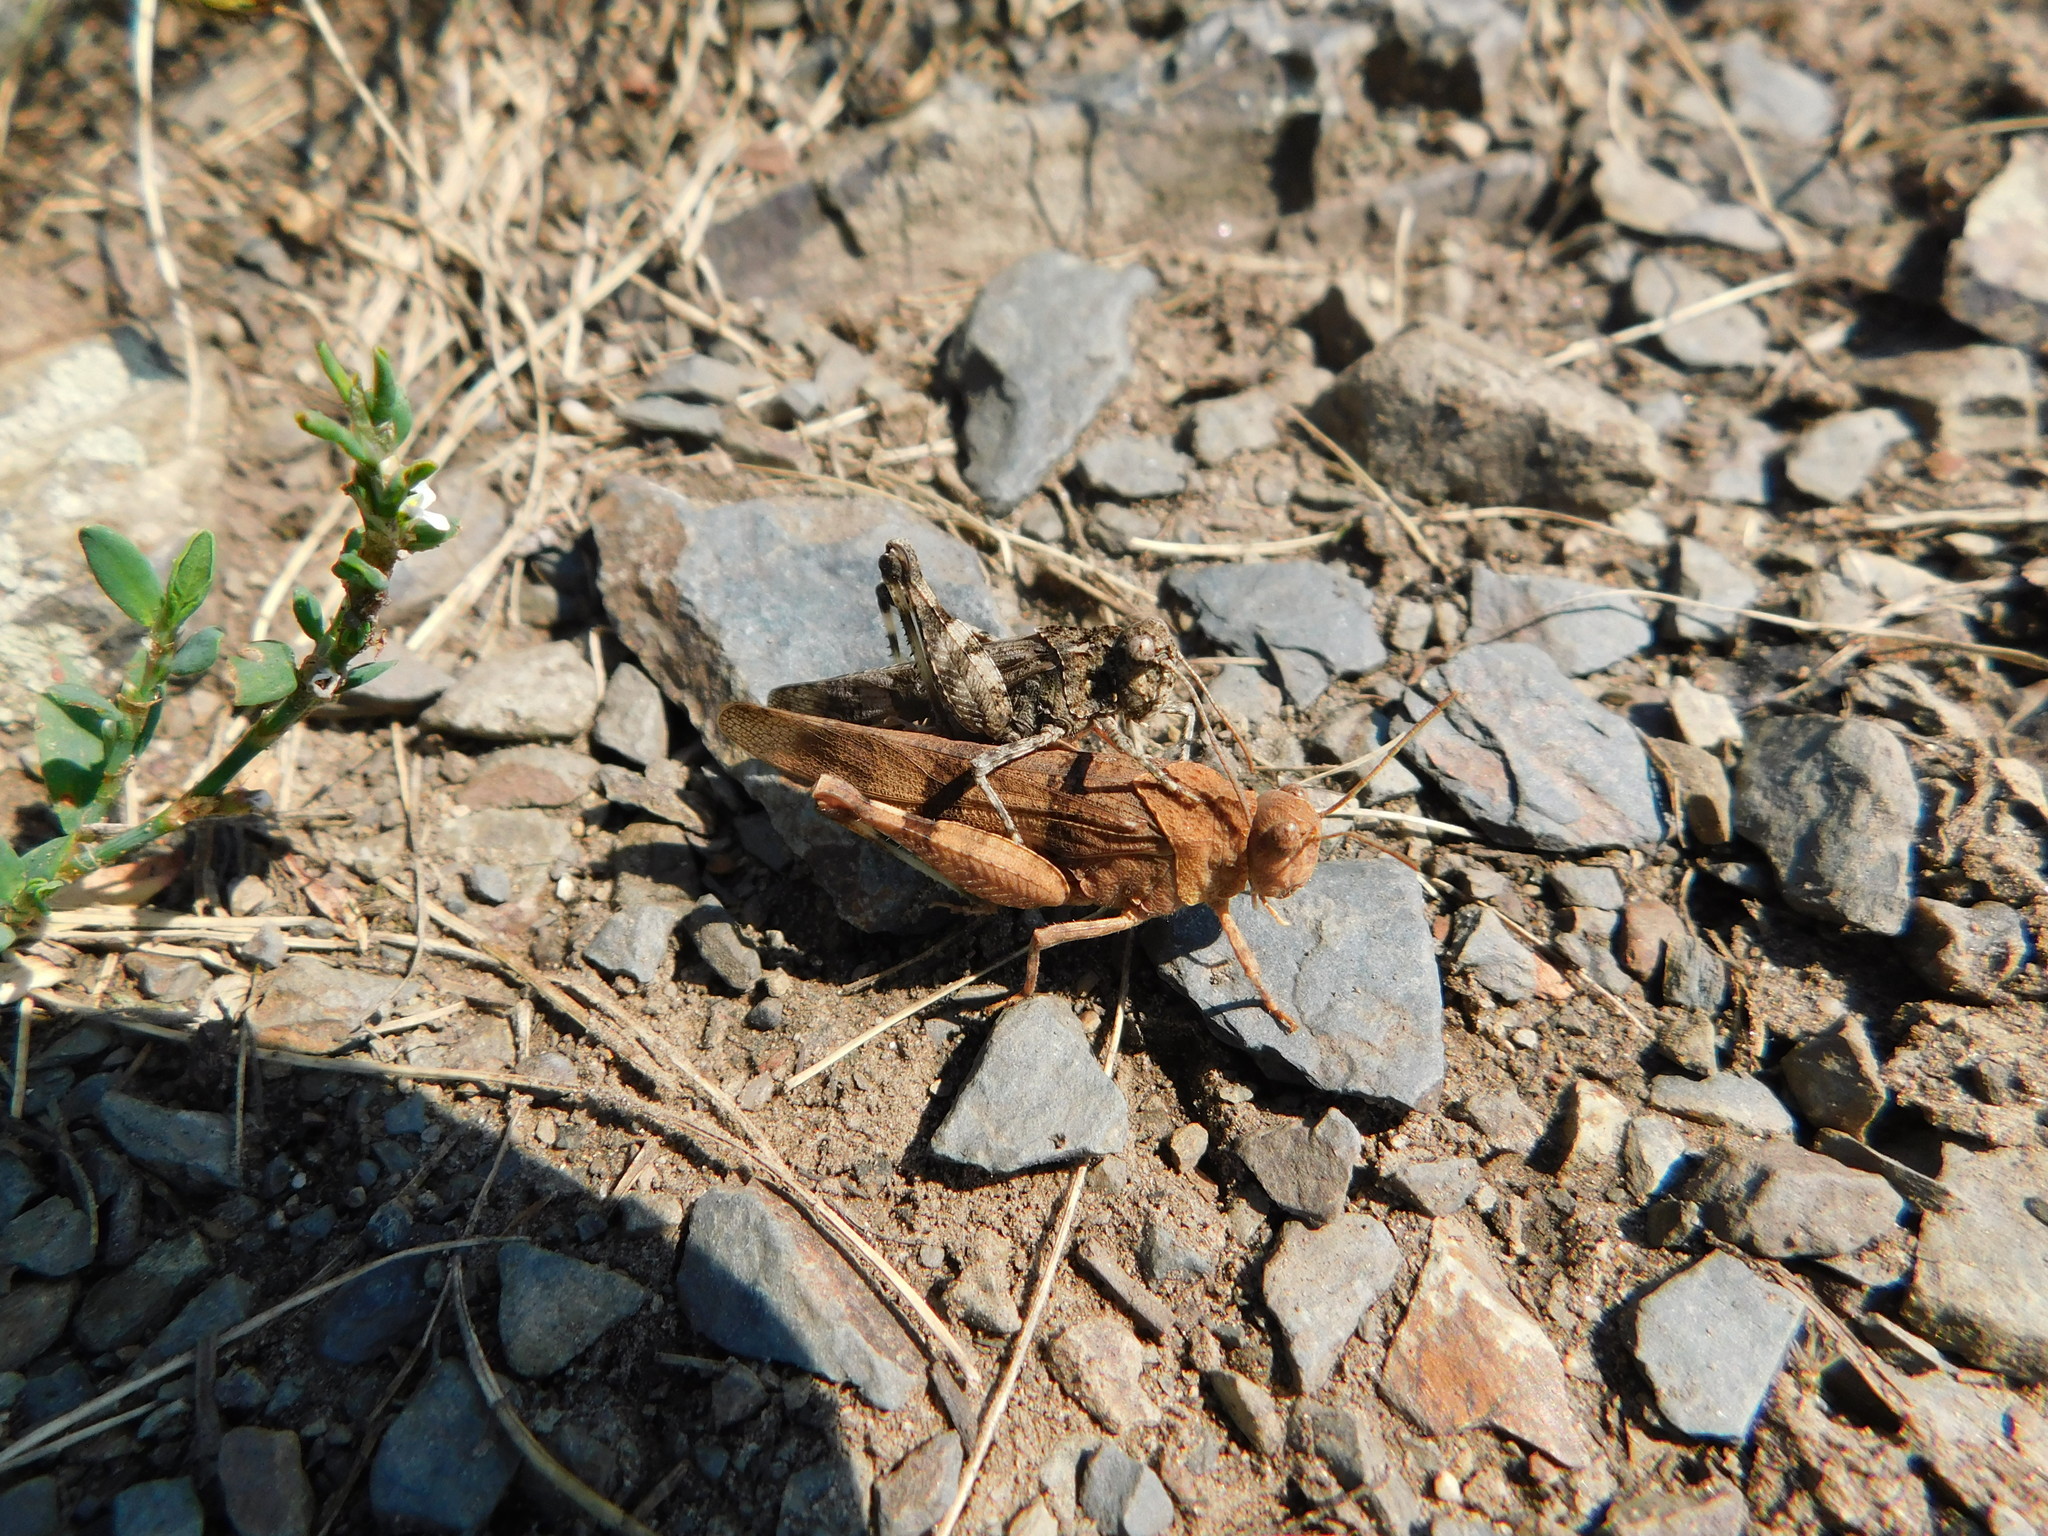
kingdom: Animalia
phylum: Arthropoda
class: Insecta
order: Orthoptera
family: Acrididae
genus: Oedipoda
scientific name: Oedipoda caerulescens
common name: Blue-winged grasshopper
